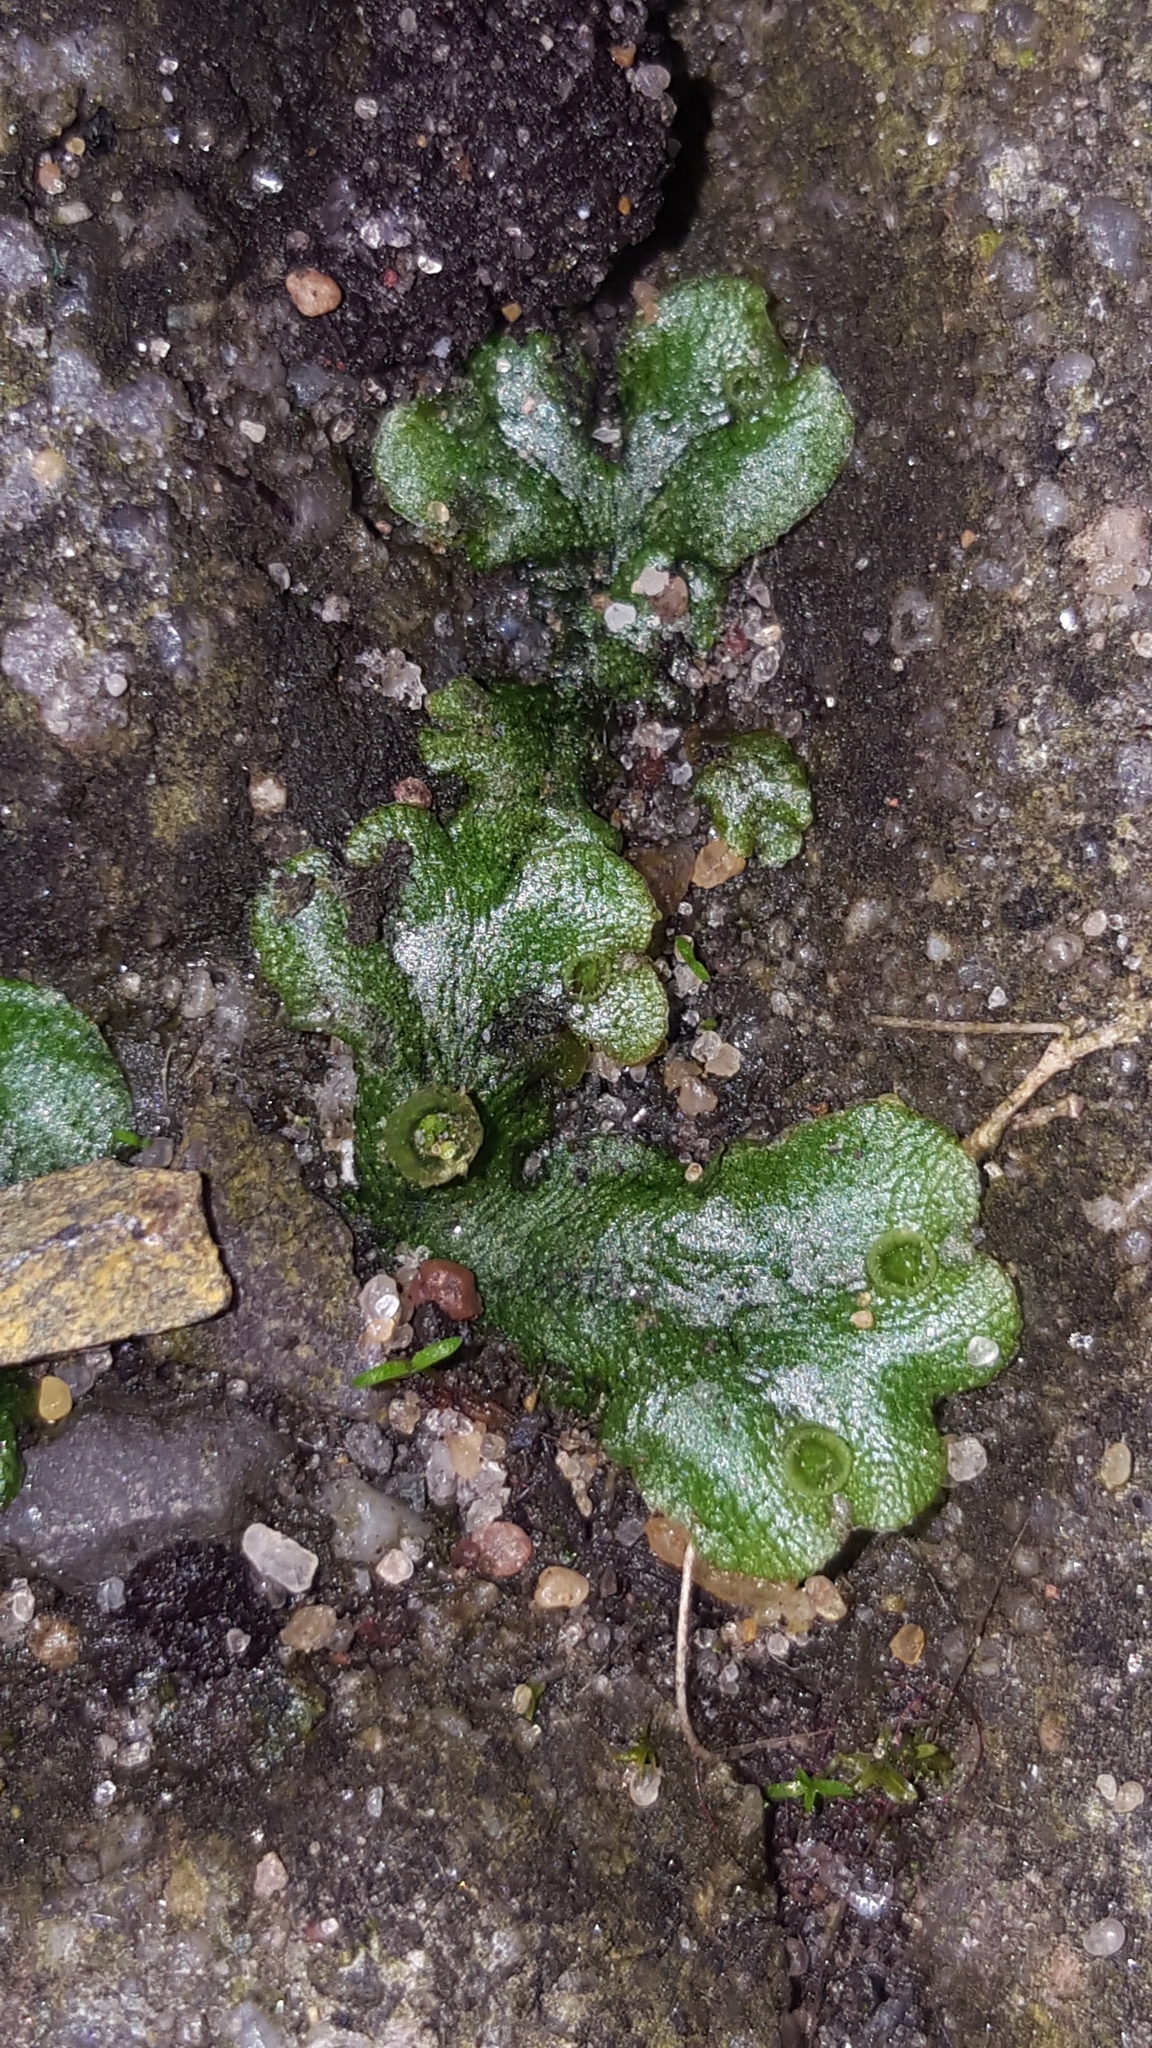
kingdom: Plantae
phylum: Marchantiophyta
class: Marchantiopsida
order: Marchantiales
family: Marchantiaceae
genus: Marchantia
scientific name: Marchantia polymorpha
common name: Common liverwort
